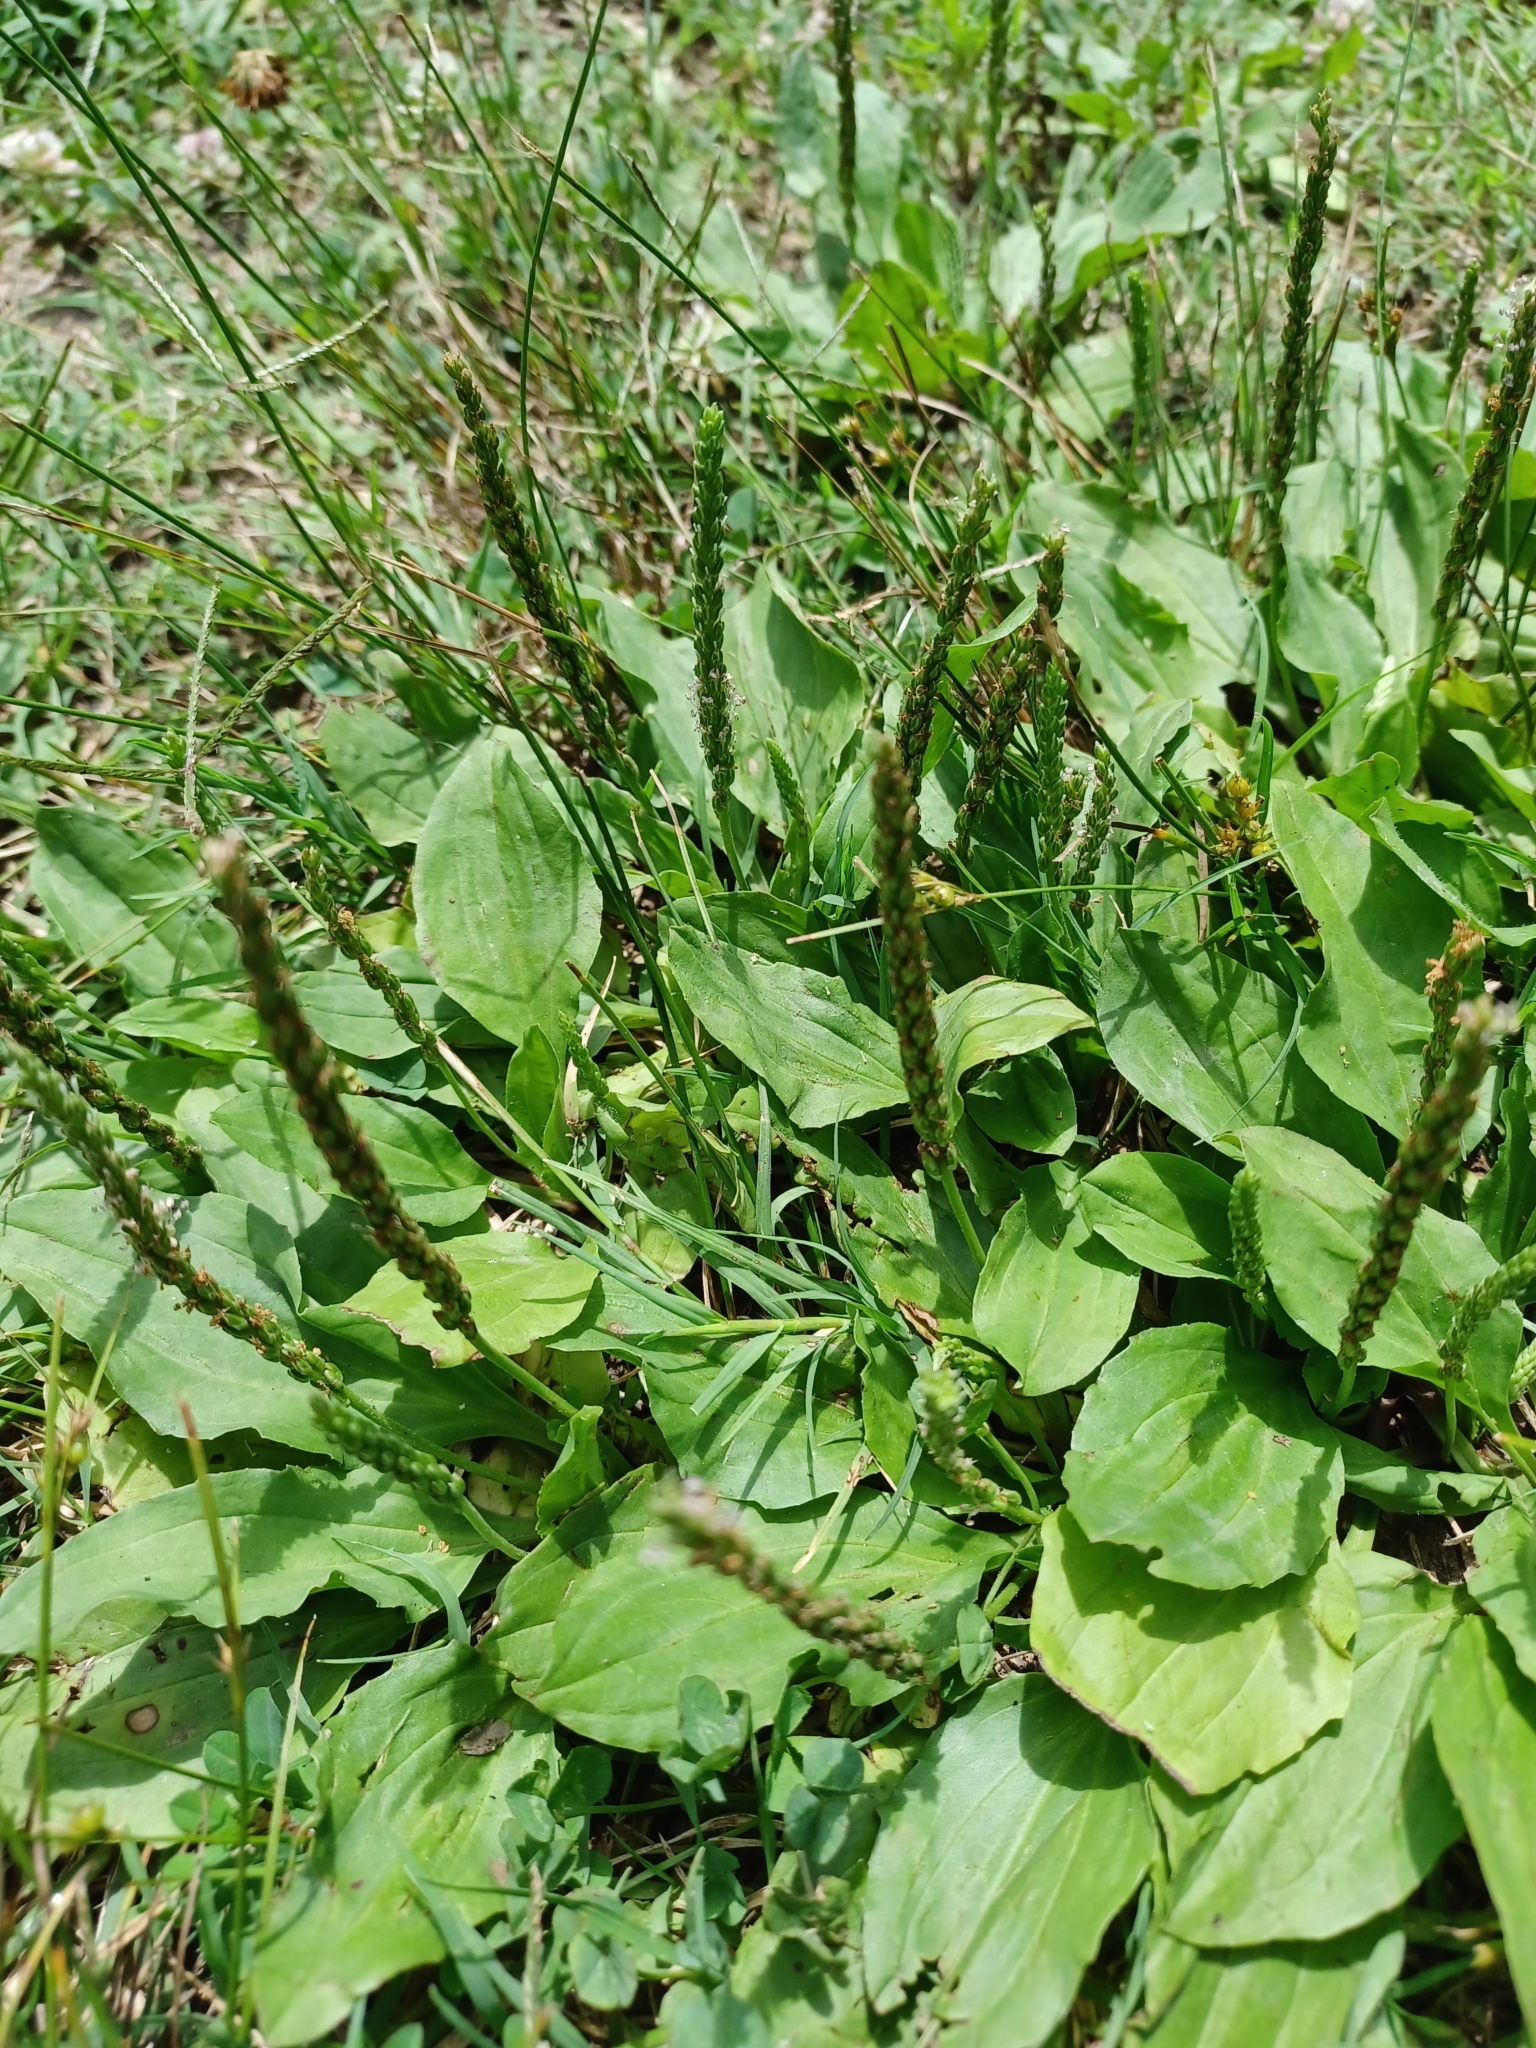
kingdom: Plantae
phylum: Tracheophyta
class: Magnoliopsida
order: Lamiales
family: Plantaginaceae
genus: Plantago
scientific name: Plantago rugelii
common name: American plantain
